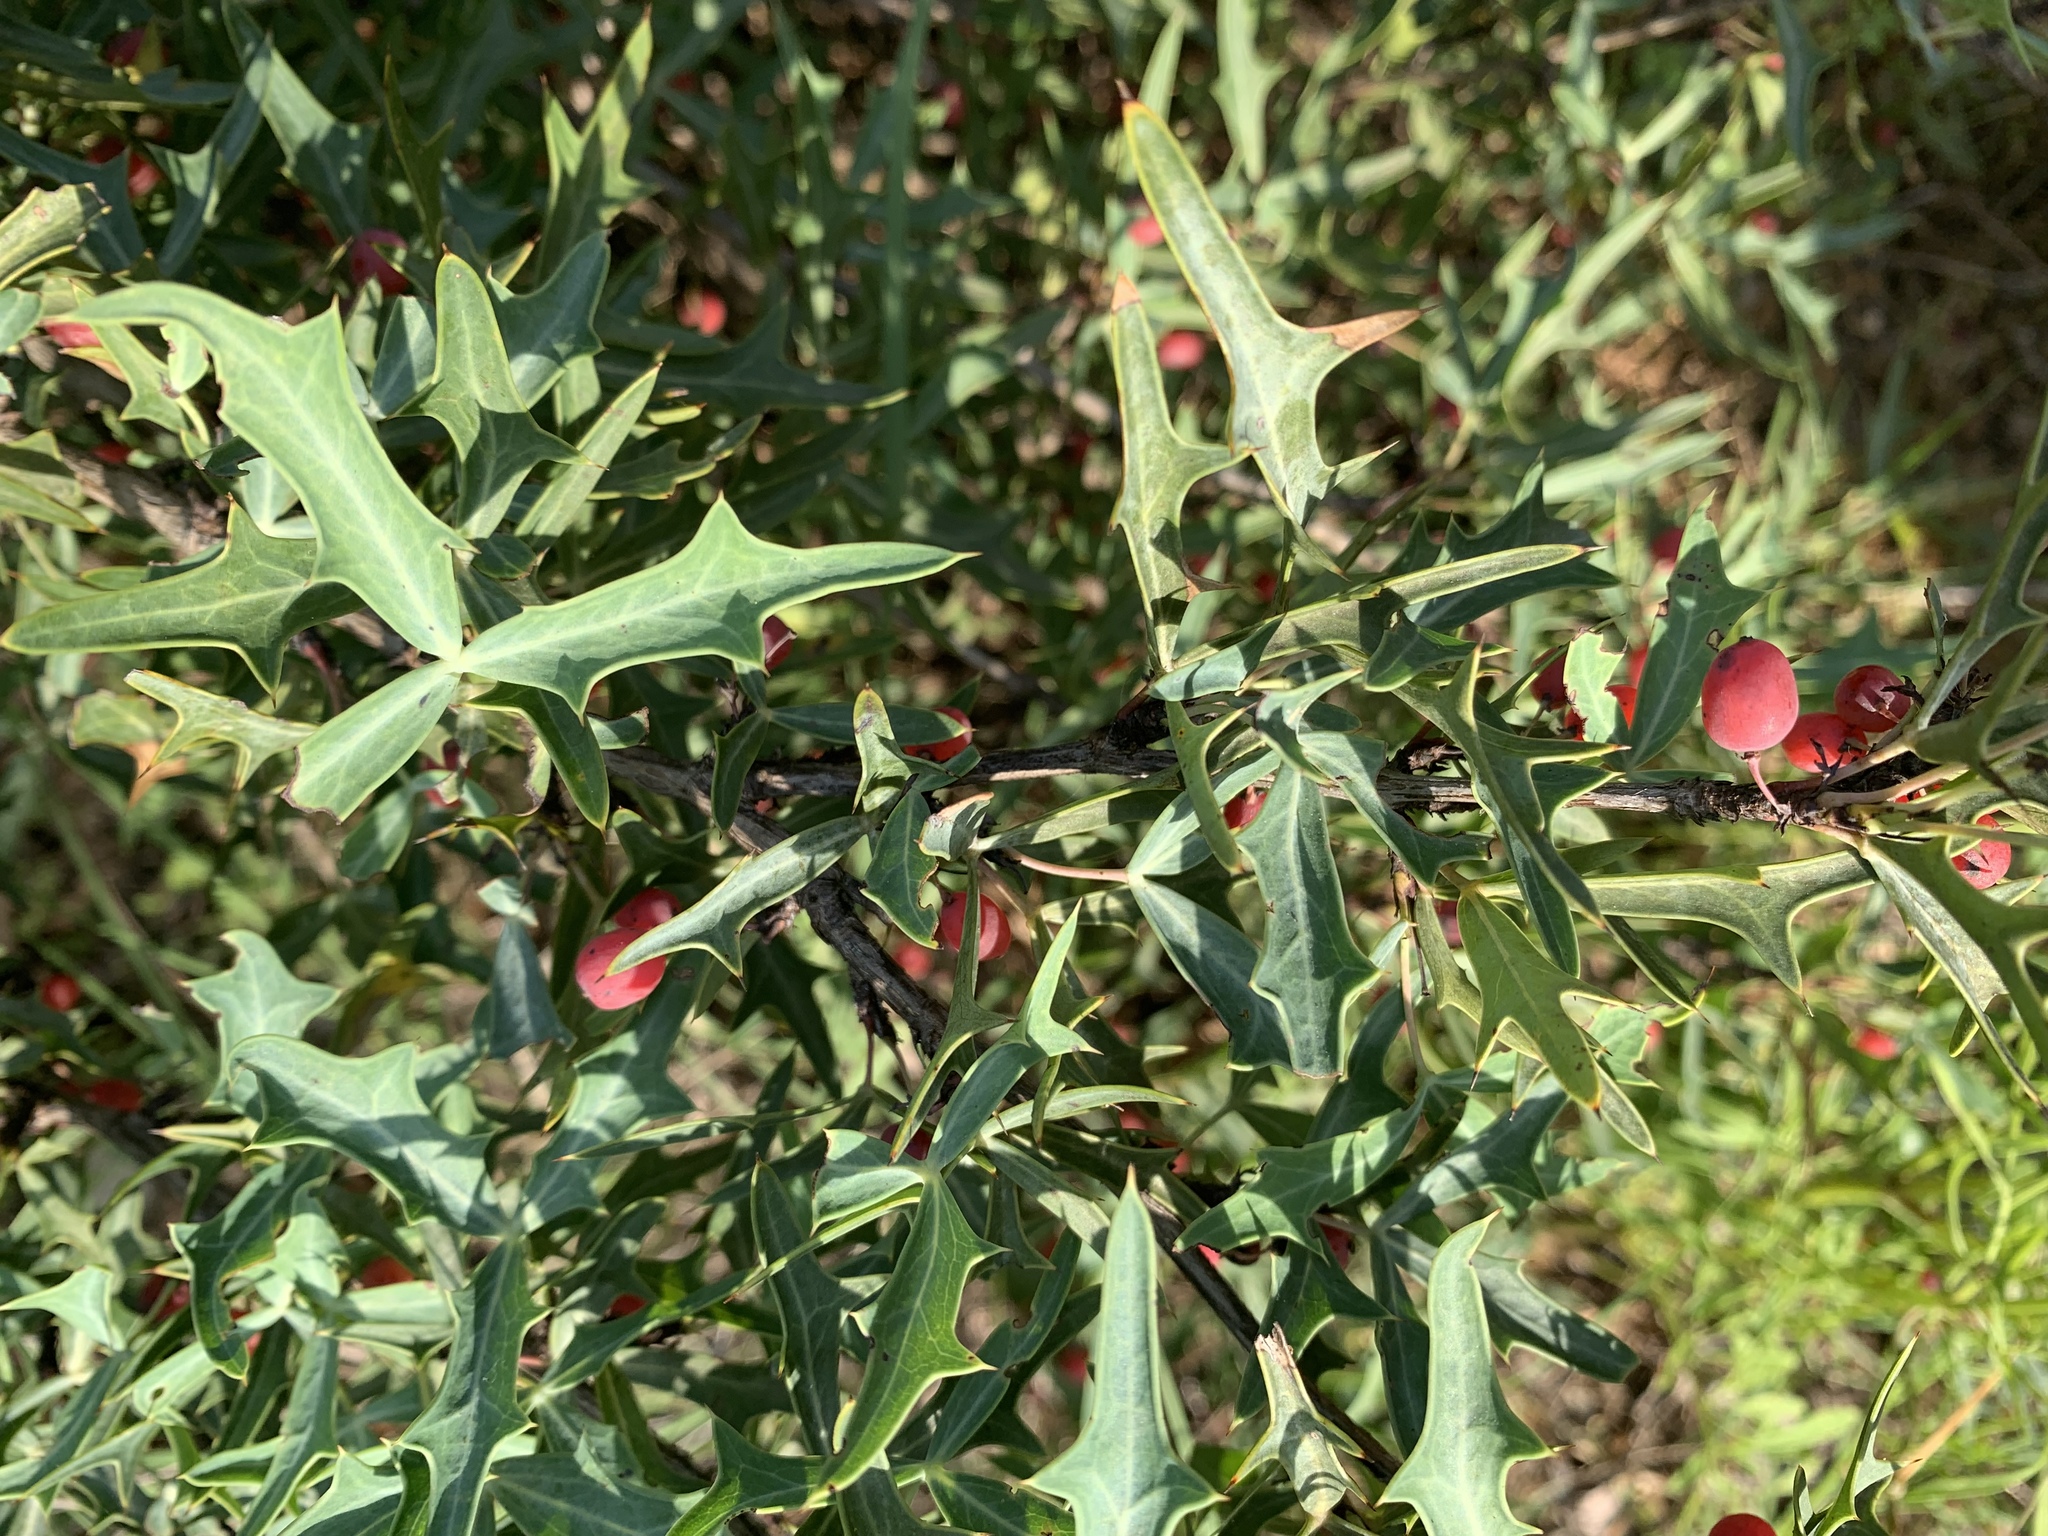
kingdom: Plantae
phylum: Tracheophyta
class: Magnoliopsida
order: Ranunculales
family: Berberidaceae
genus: Alloberberis
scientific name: Alloberberis trifoliolata
